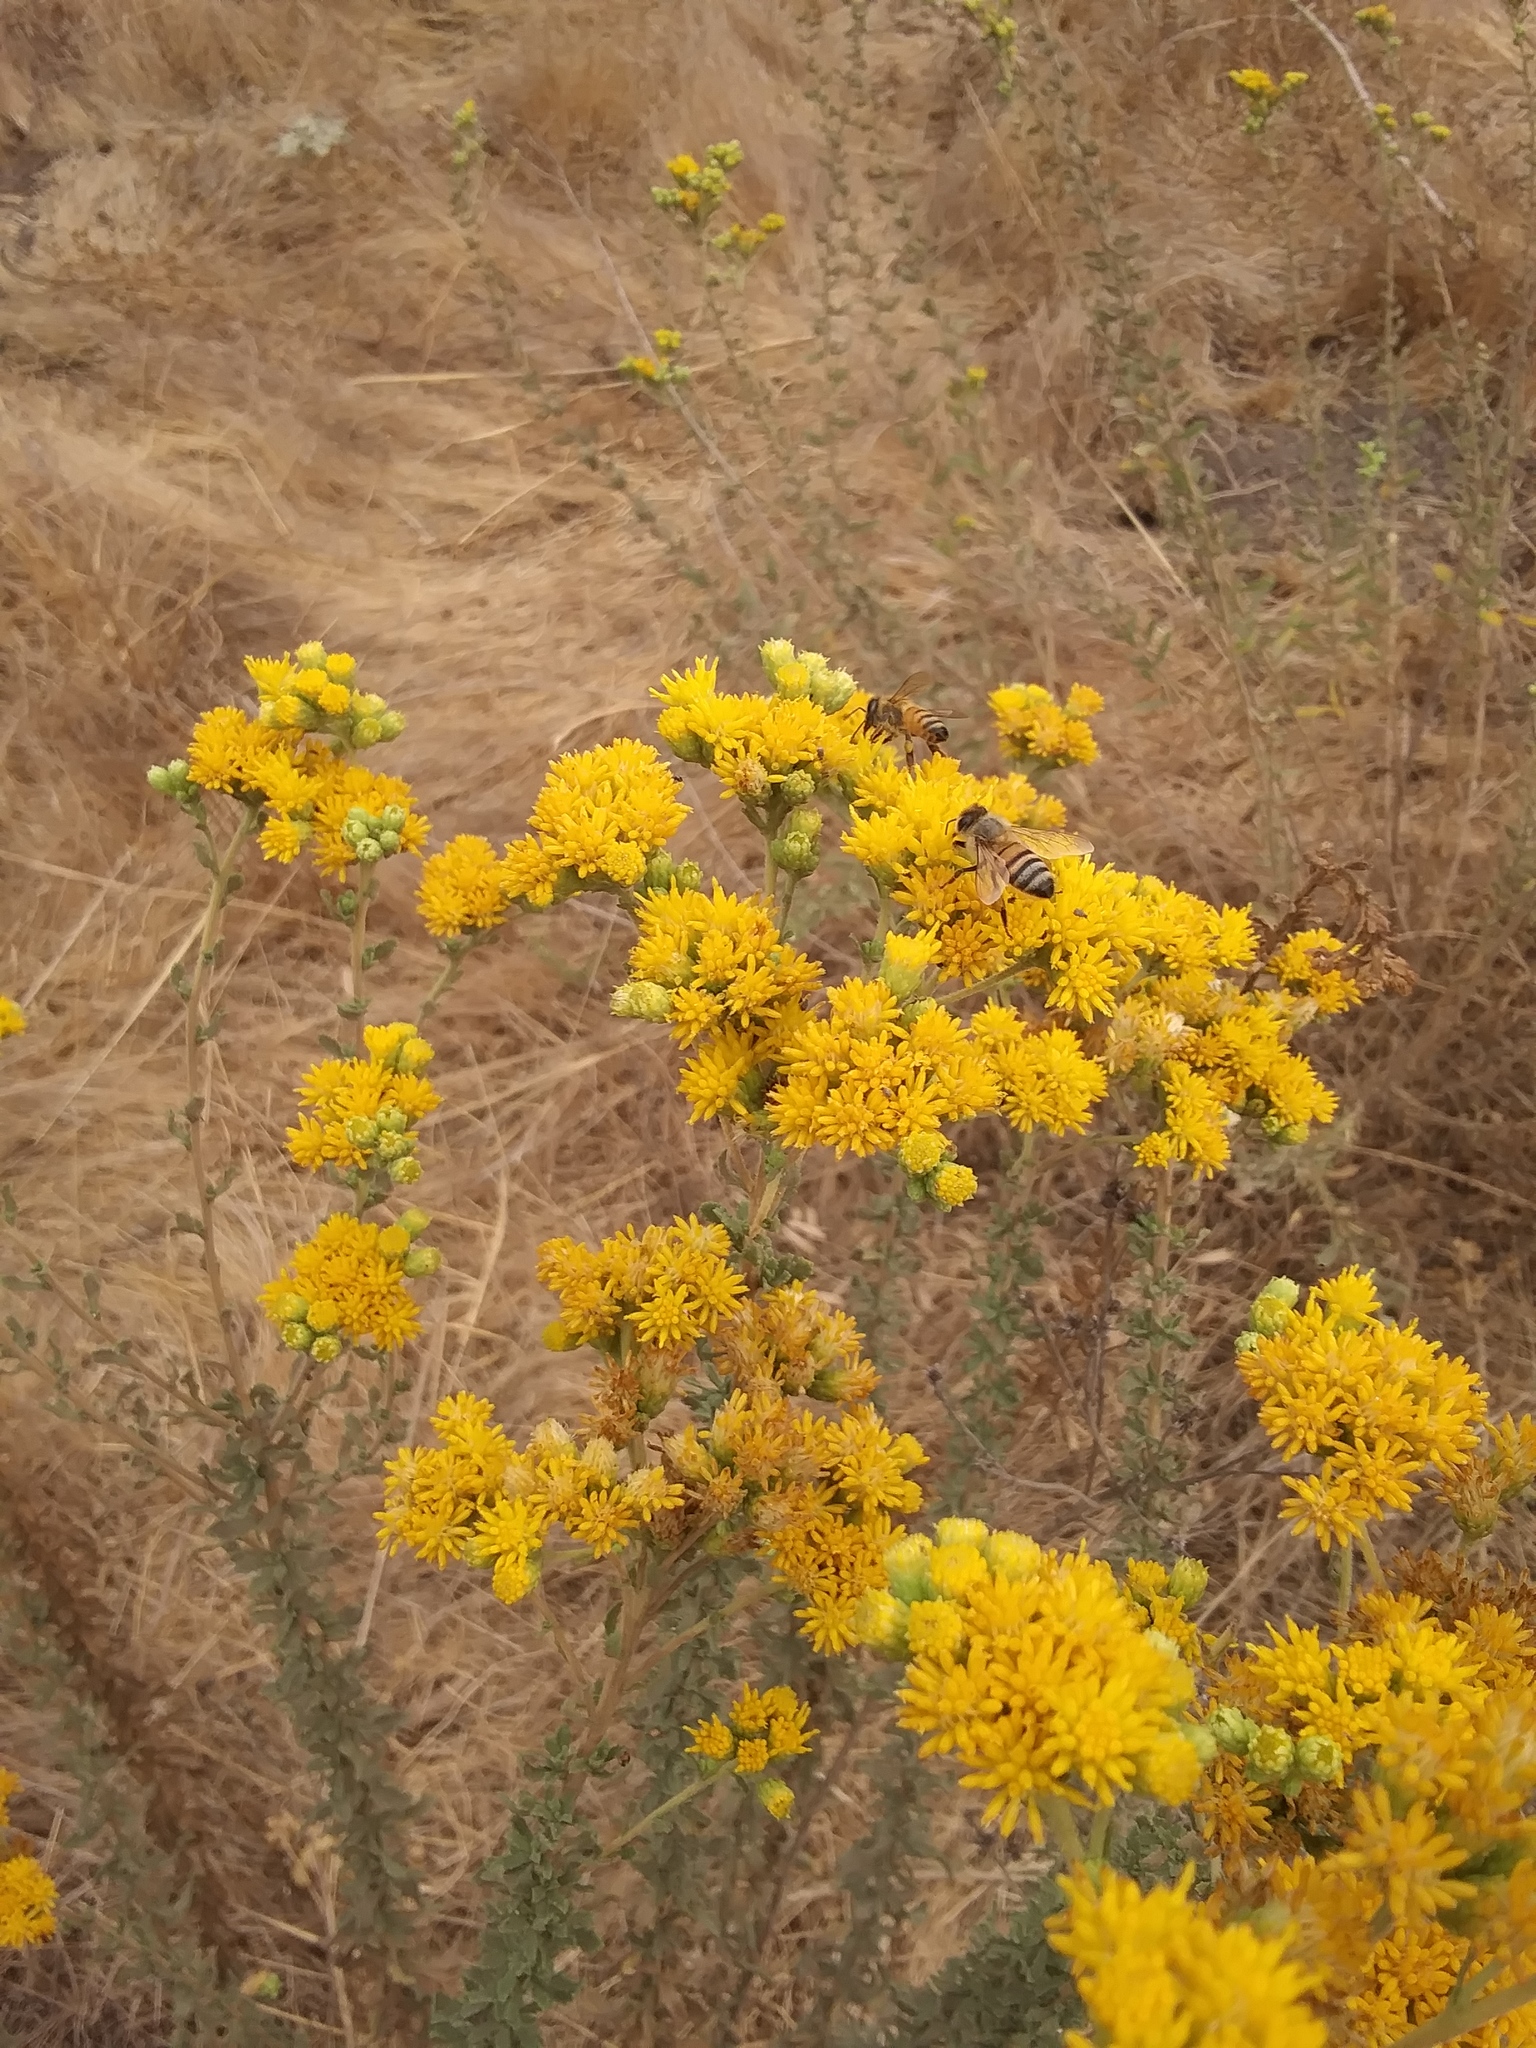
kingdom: Plantae
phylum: Tracheophyta
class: Magnoliopsida
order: Asterales
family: Asteraceae
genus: Isocoma
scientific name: Isocoma menziesii
